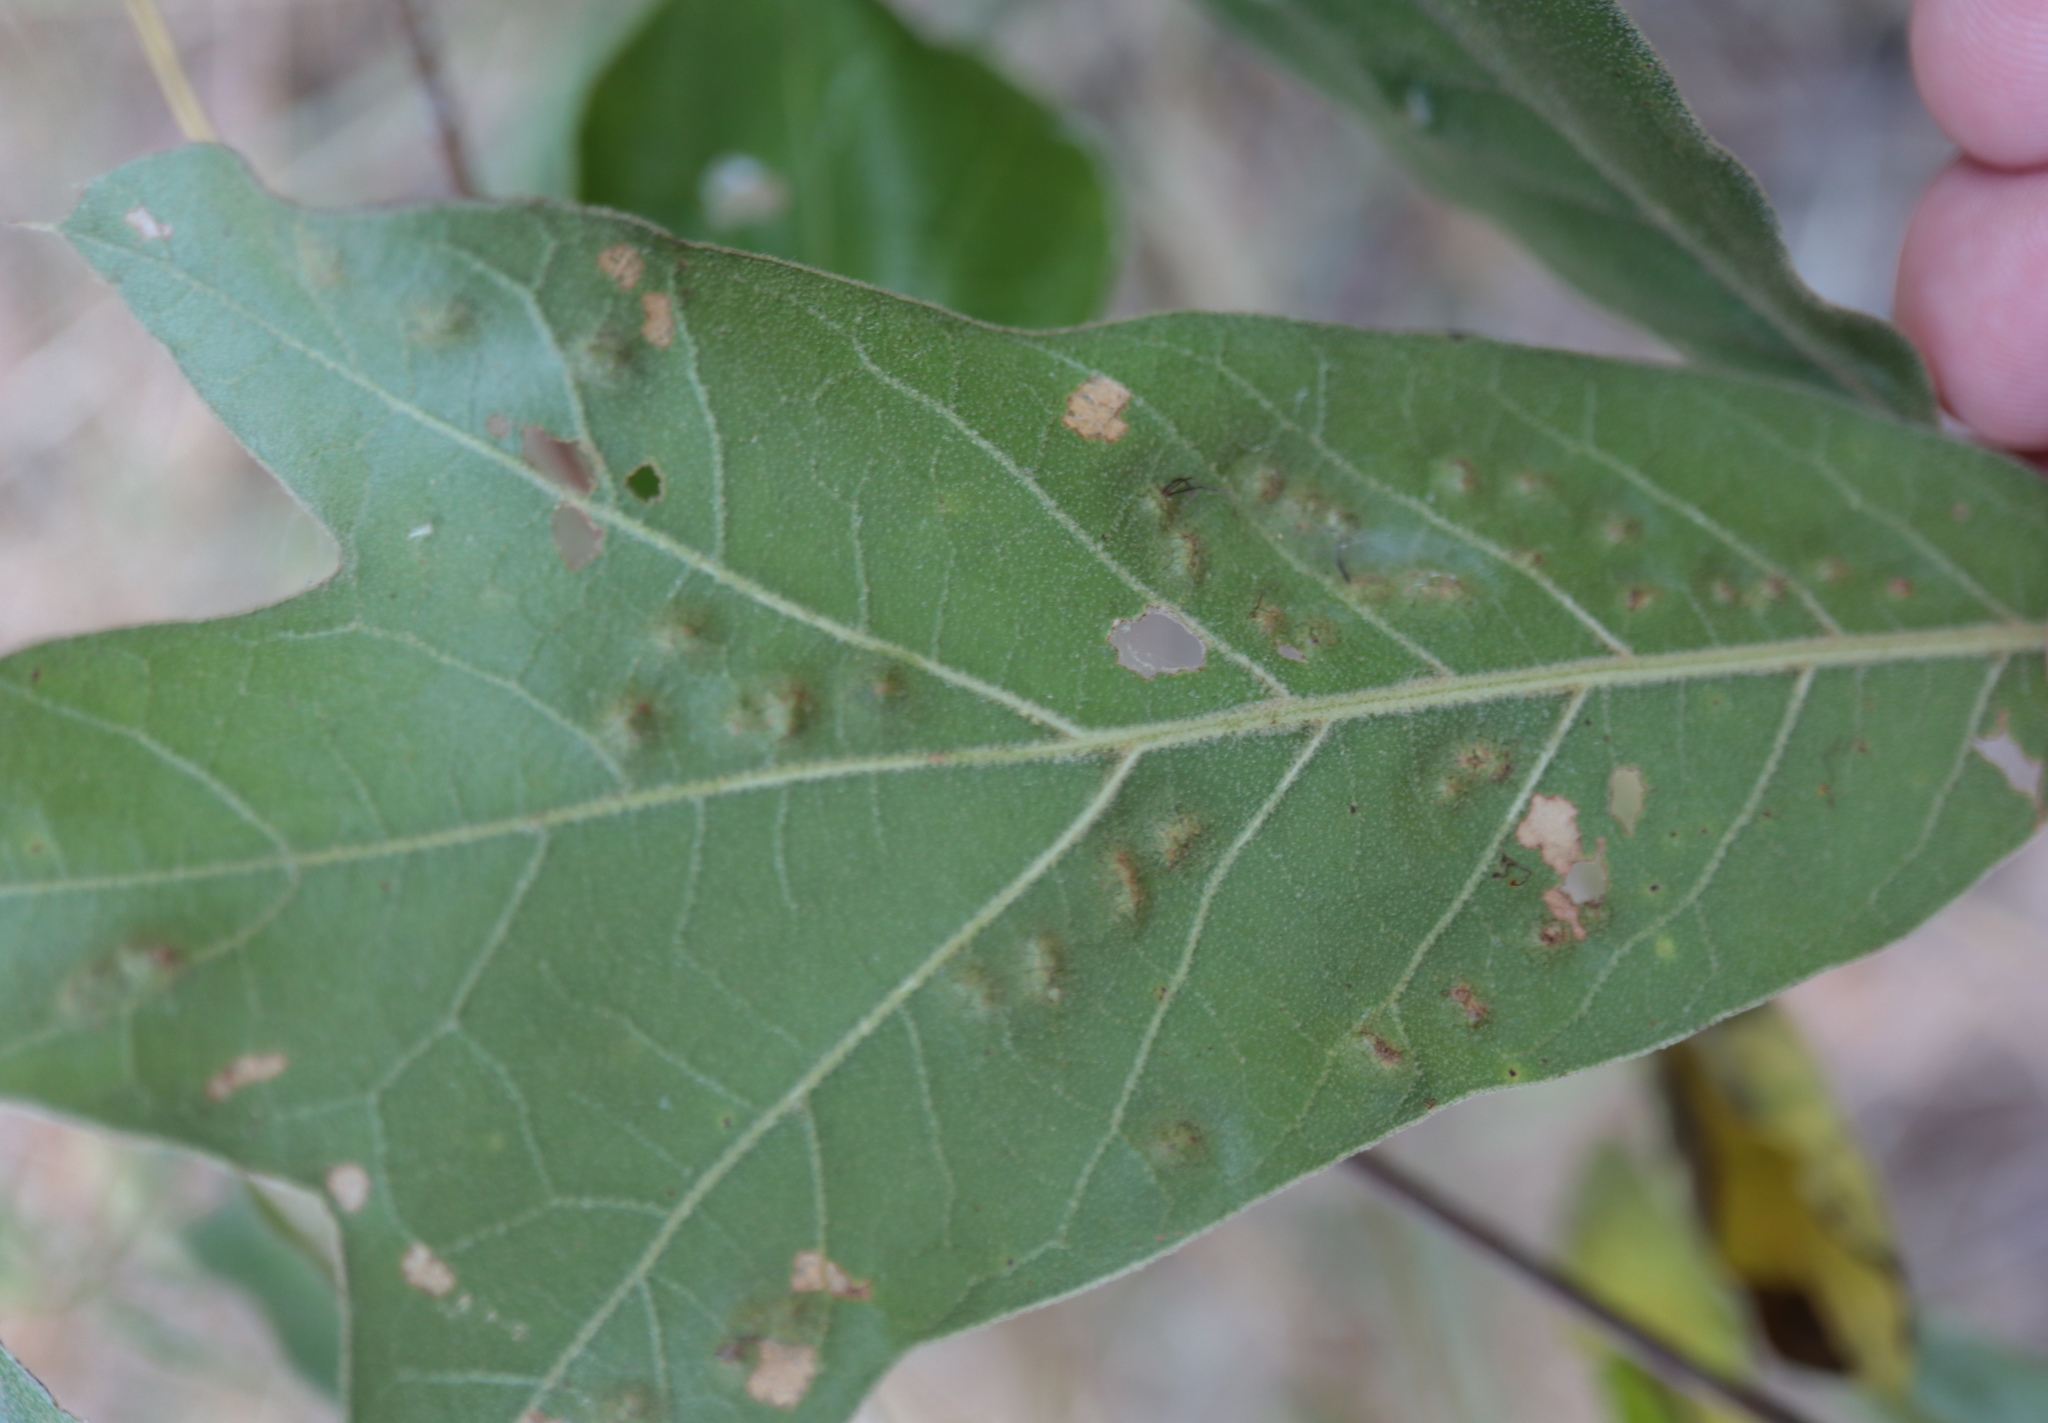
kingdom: Animalia
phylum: Arthropoda
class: Insecta
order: Hymenoptera
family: Cynipidae
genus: Callirhytis
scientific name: Callirhytis
